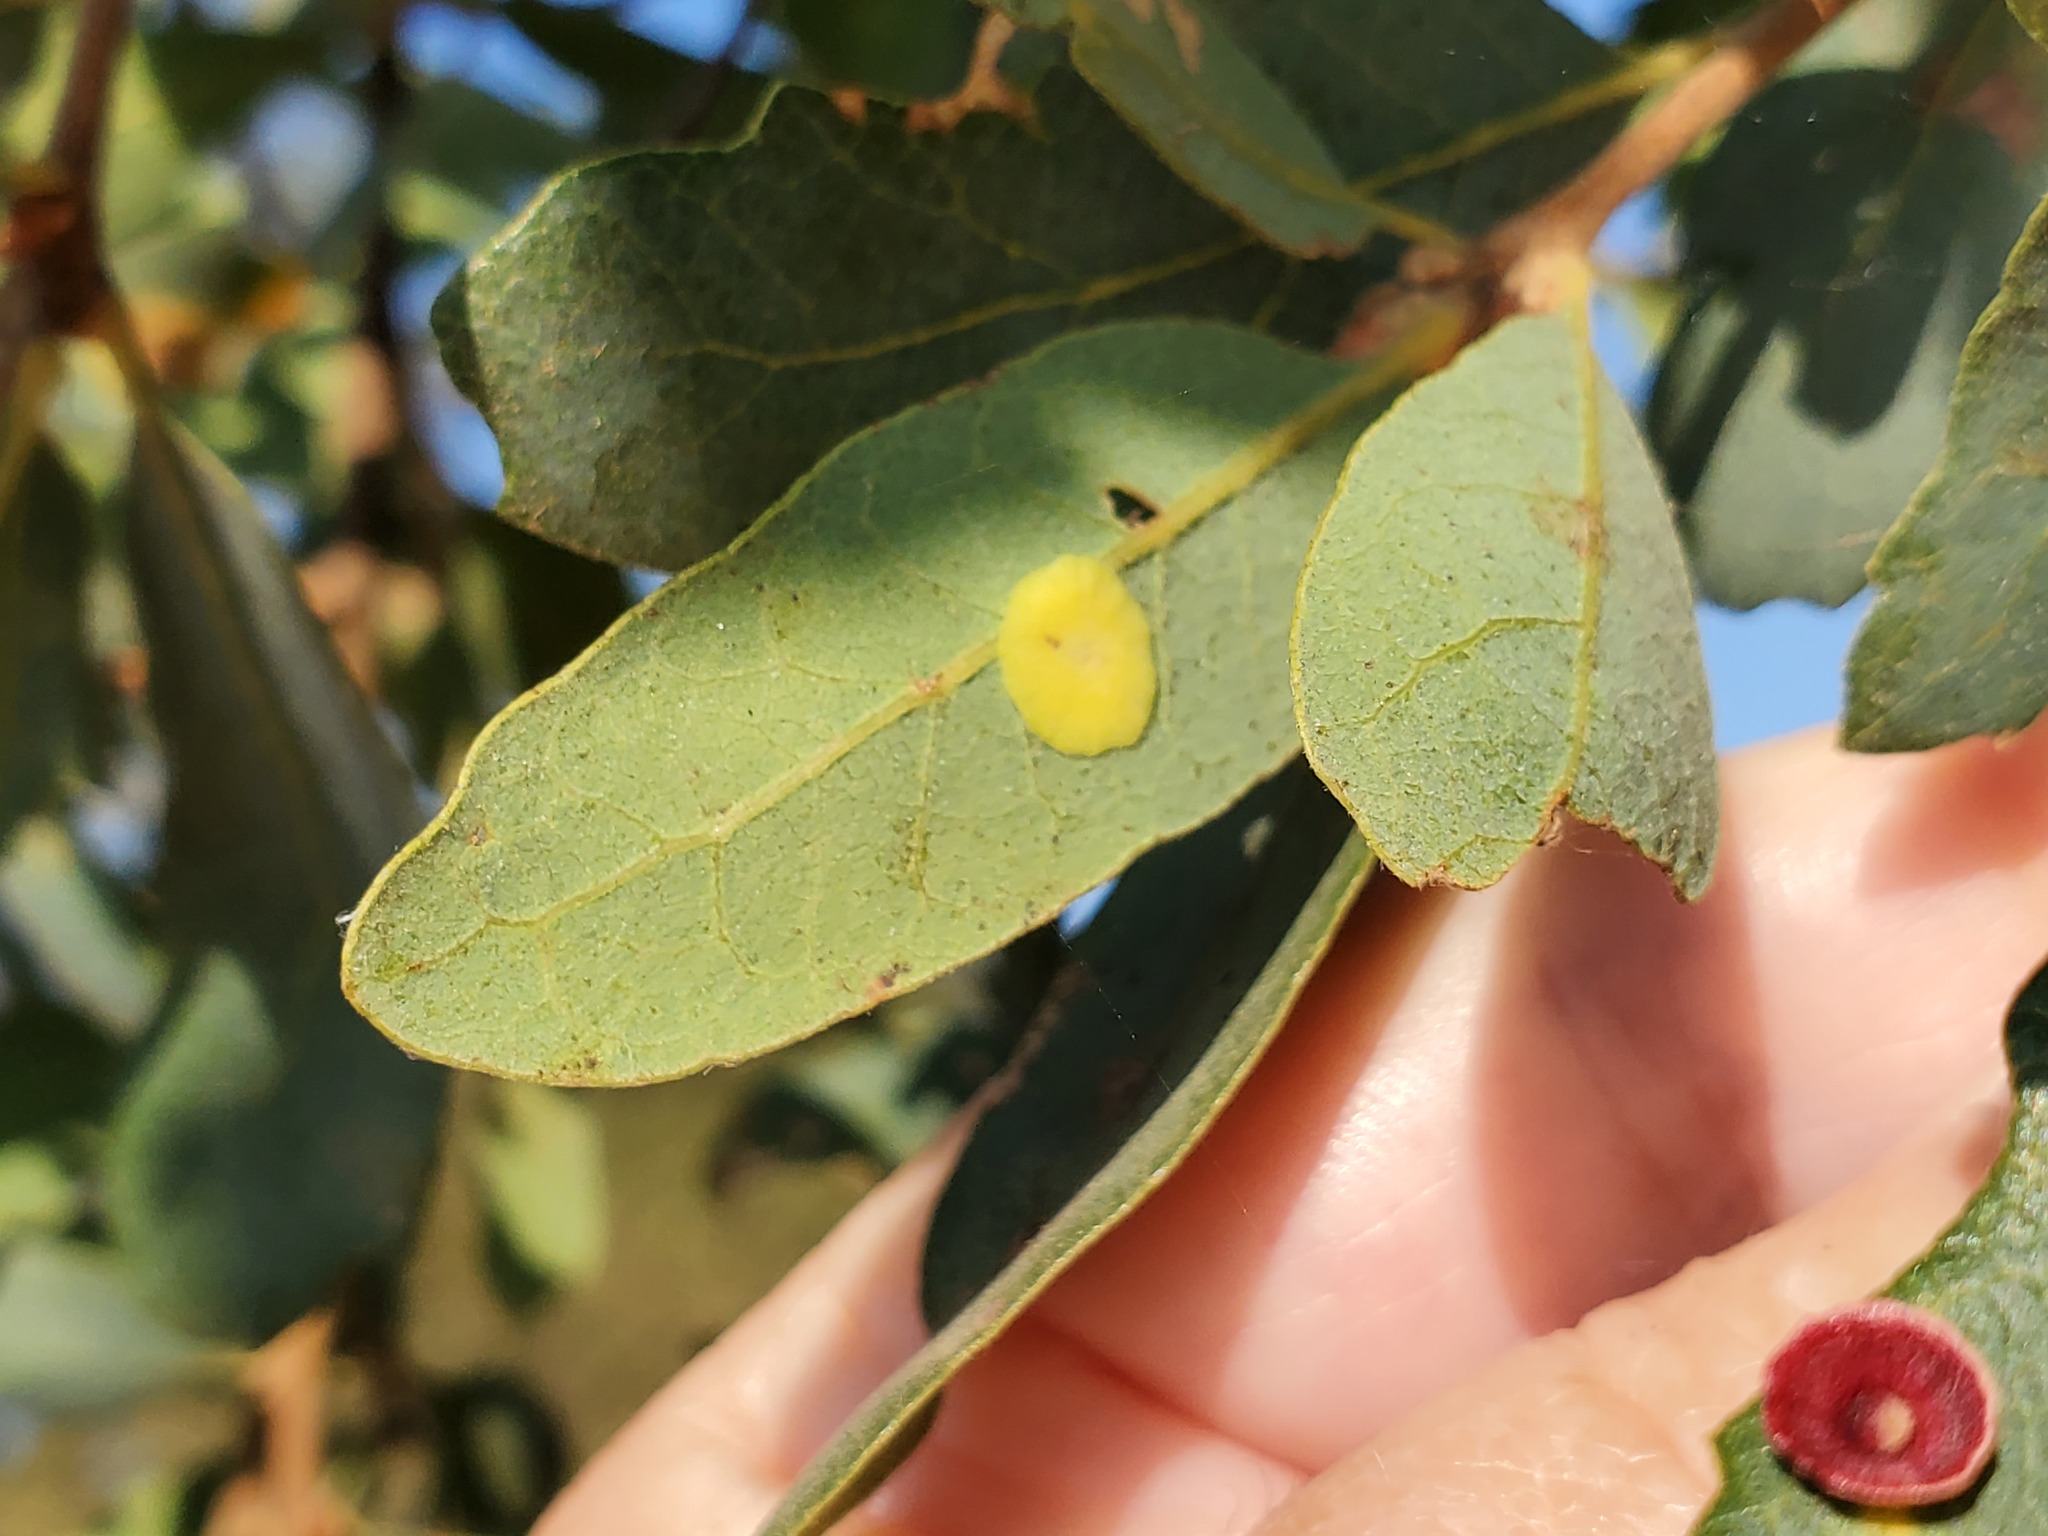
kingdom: Animalia
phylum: Arthropoda
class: Insecta
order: Hymenoptera
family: Cynipidae
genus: Andricus
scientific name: Andricus
